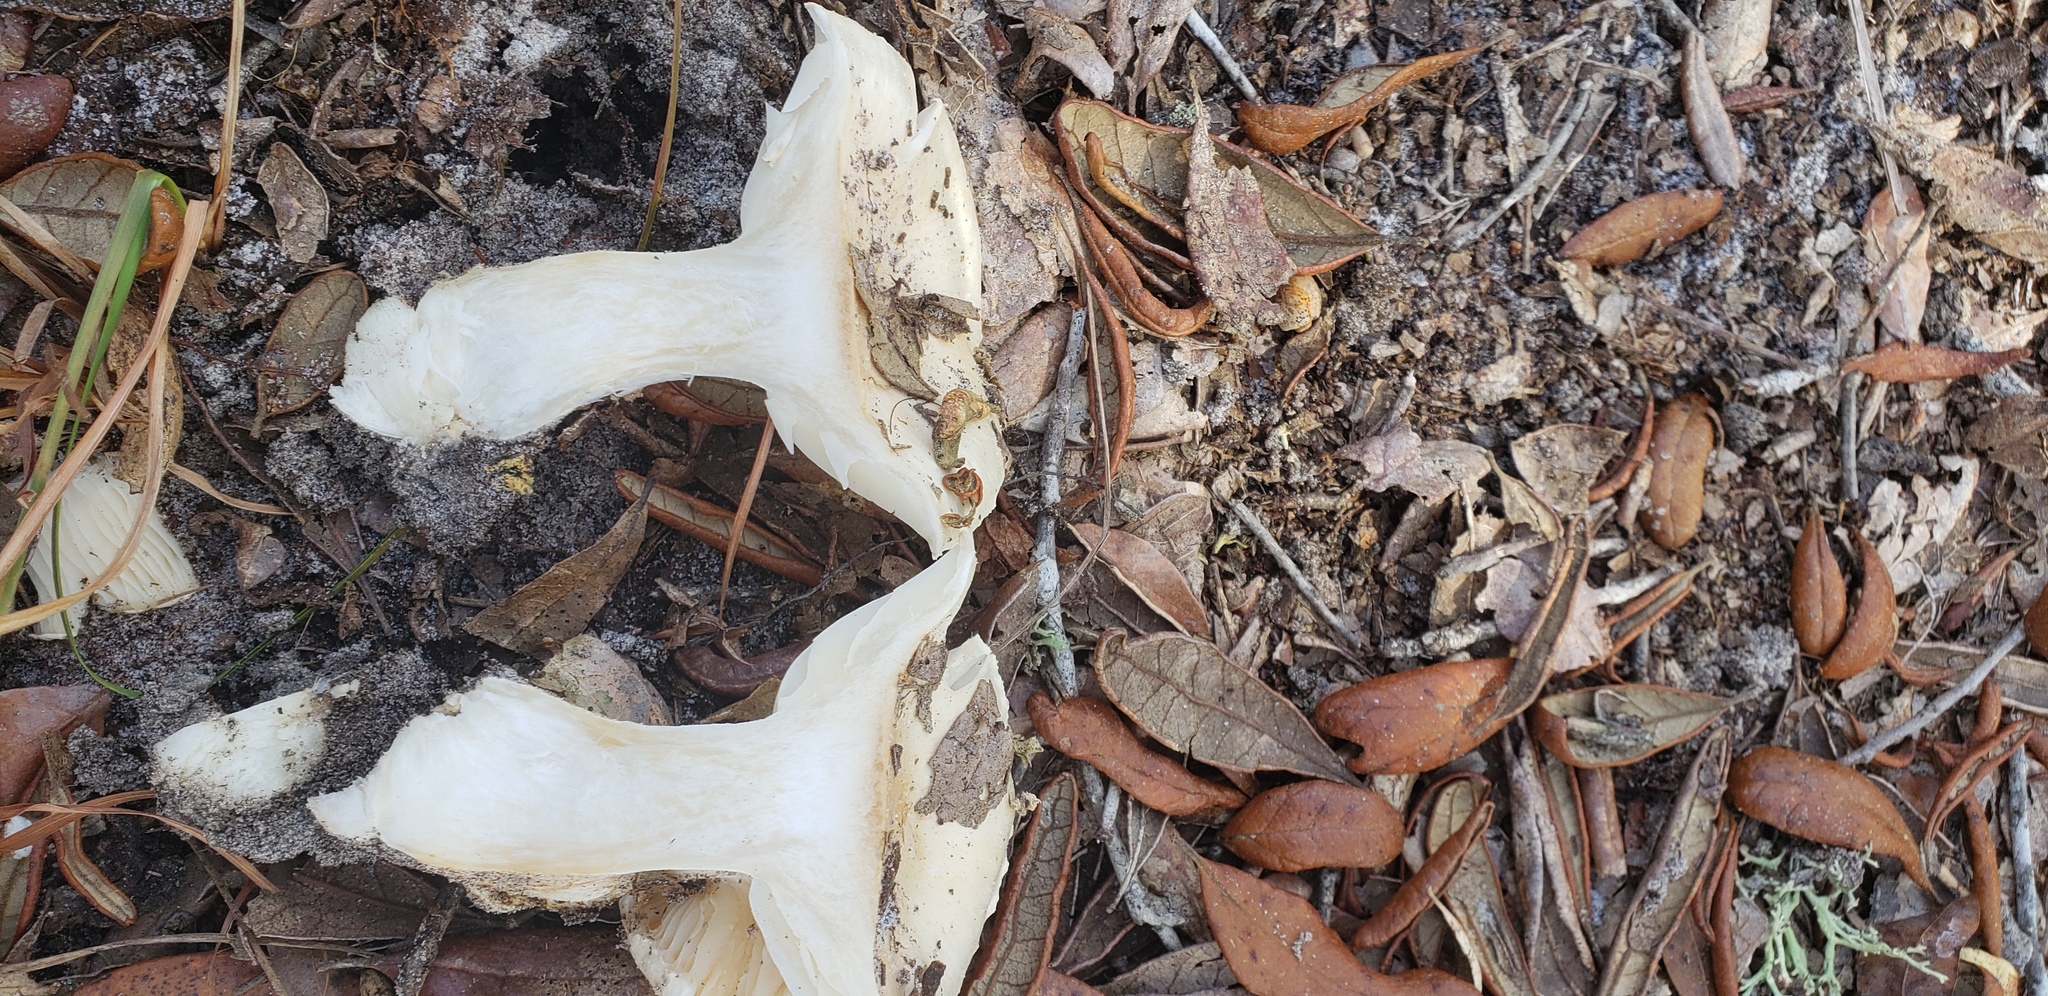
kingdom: Fungi
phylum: Basidiomycota
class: Agaricomycetes
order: Agaricales
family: Hygrophoraceae
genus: Hygrophorus
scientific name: Hygrophorus sordidus
